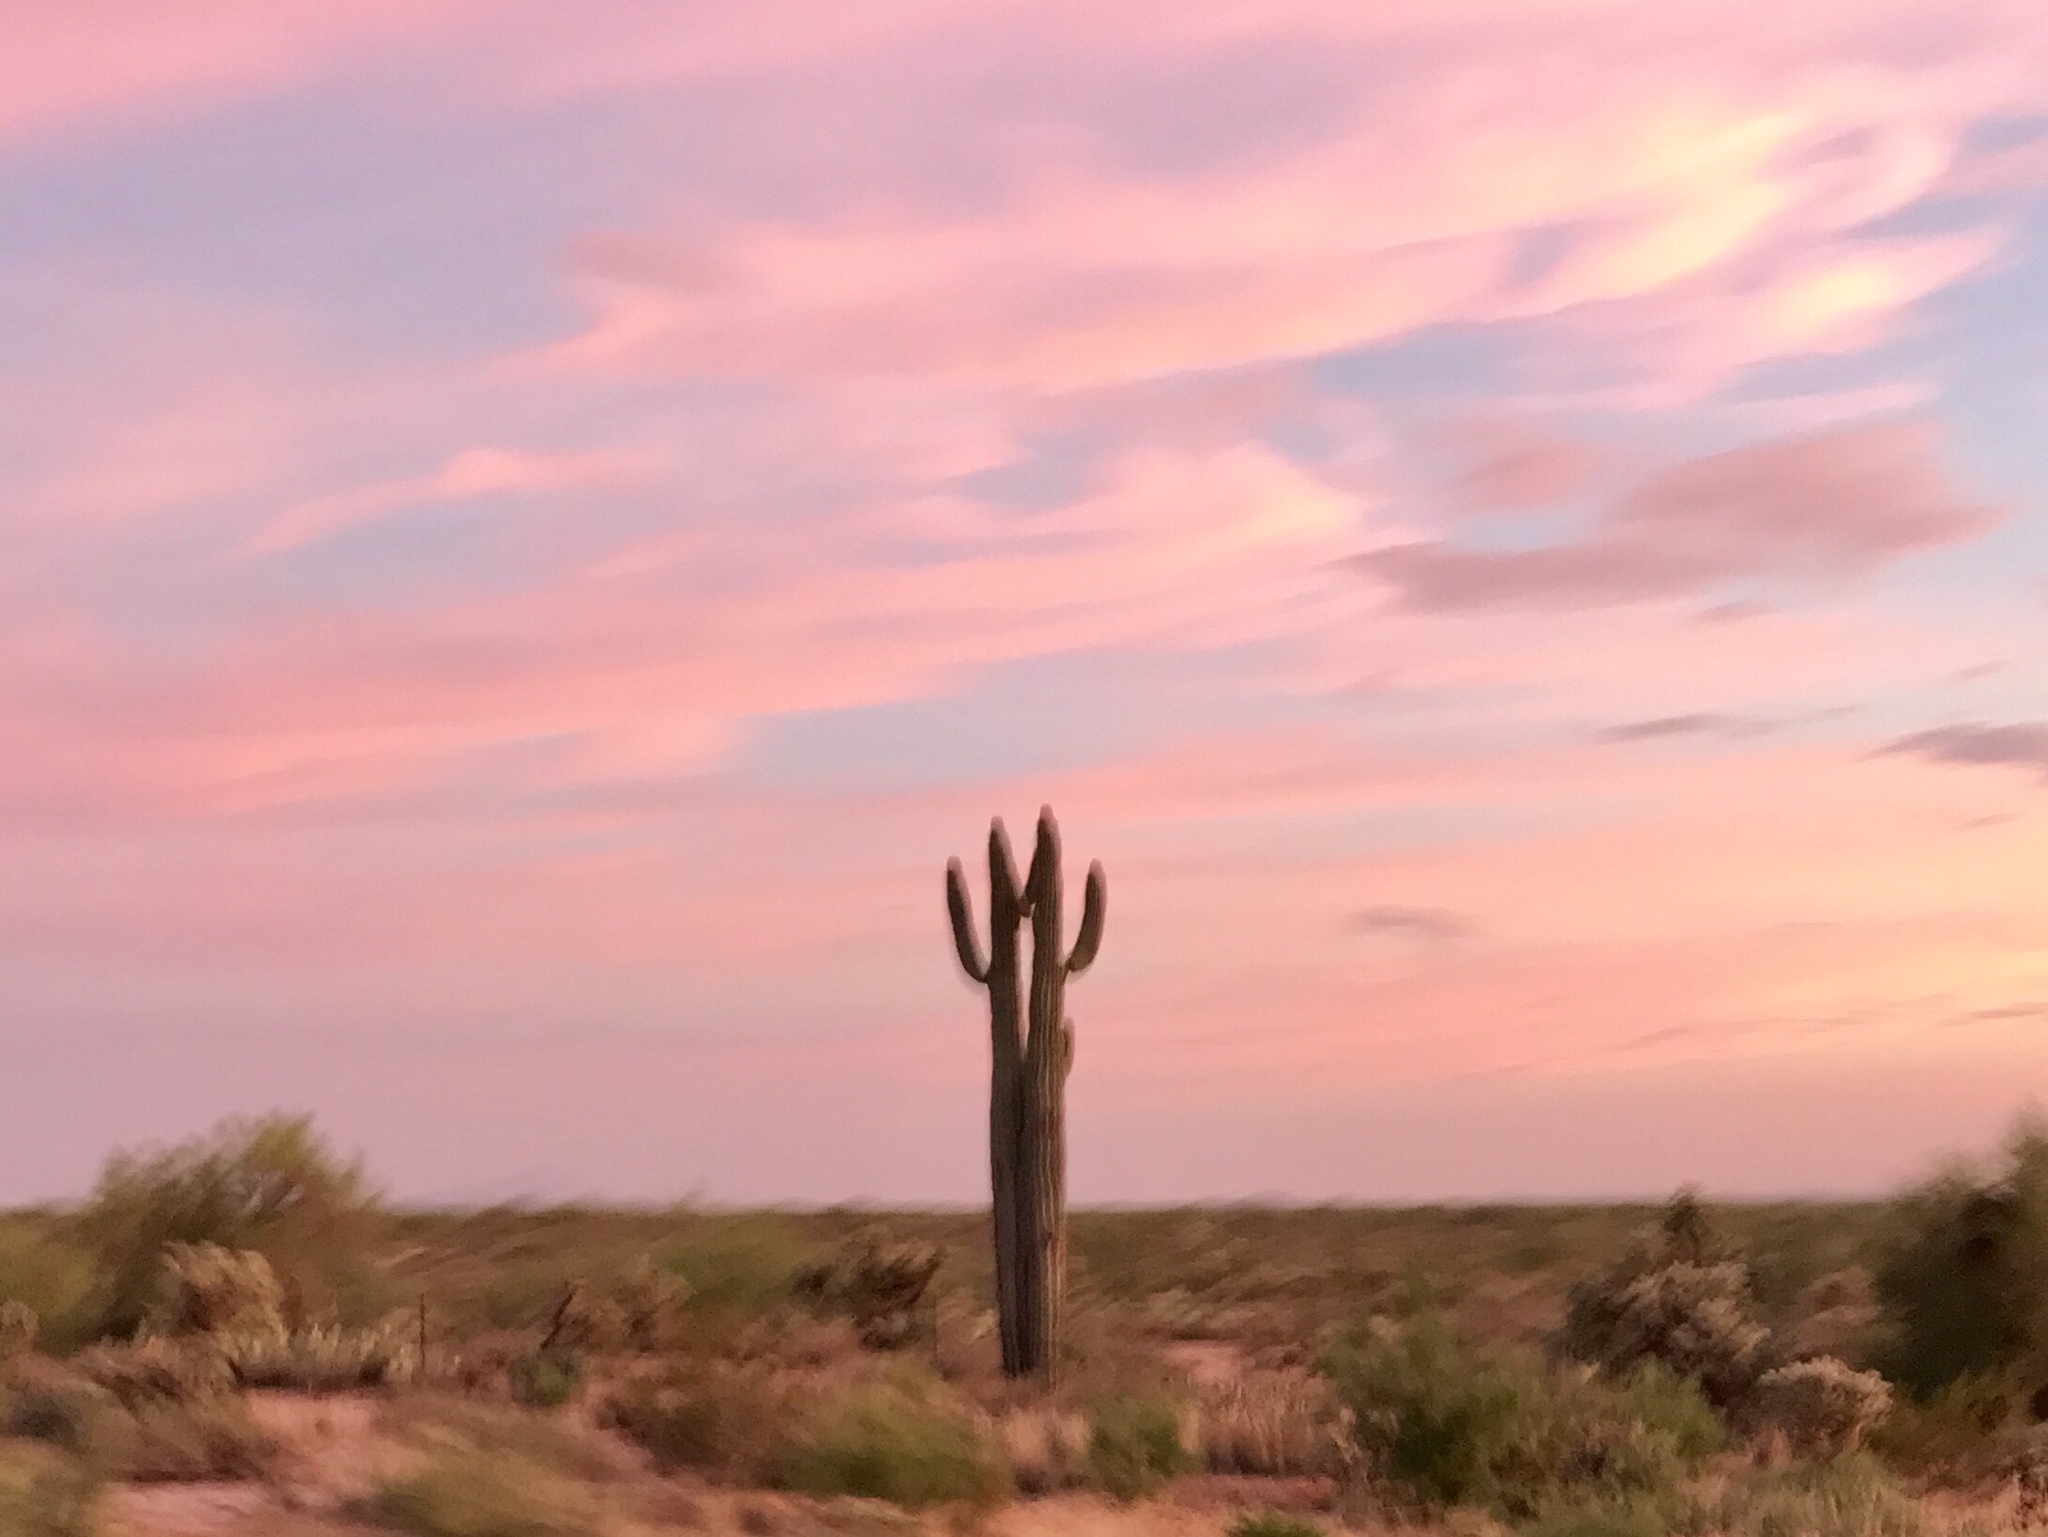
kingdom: Plantae
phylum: Tracheophyta
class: Magnoliopsida
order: Caryophyllales
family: Cactaceae
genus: Carnegiea
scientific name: Carnegiea gigantea
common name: Saguaro
